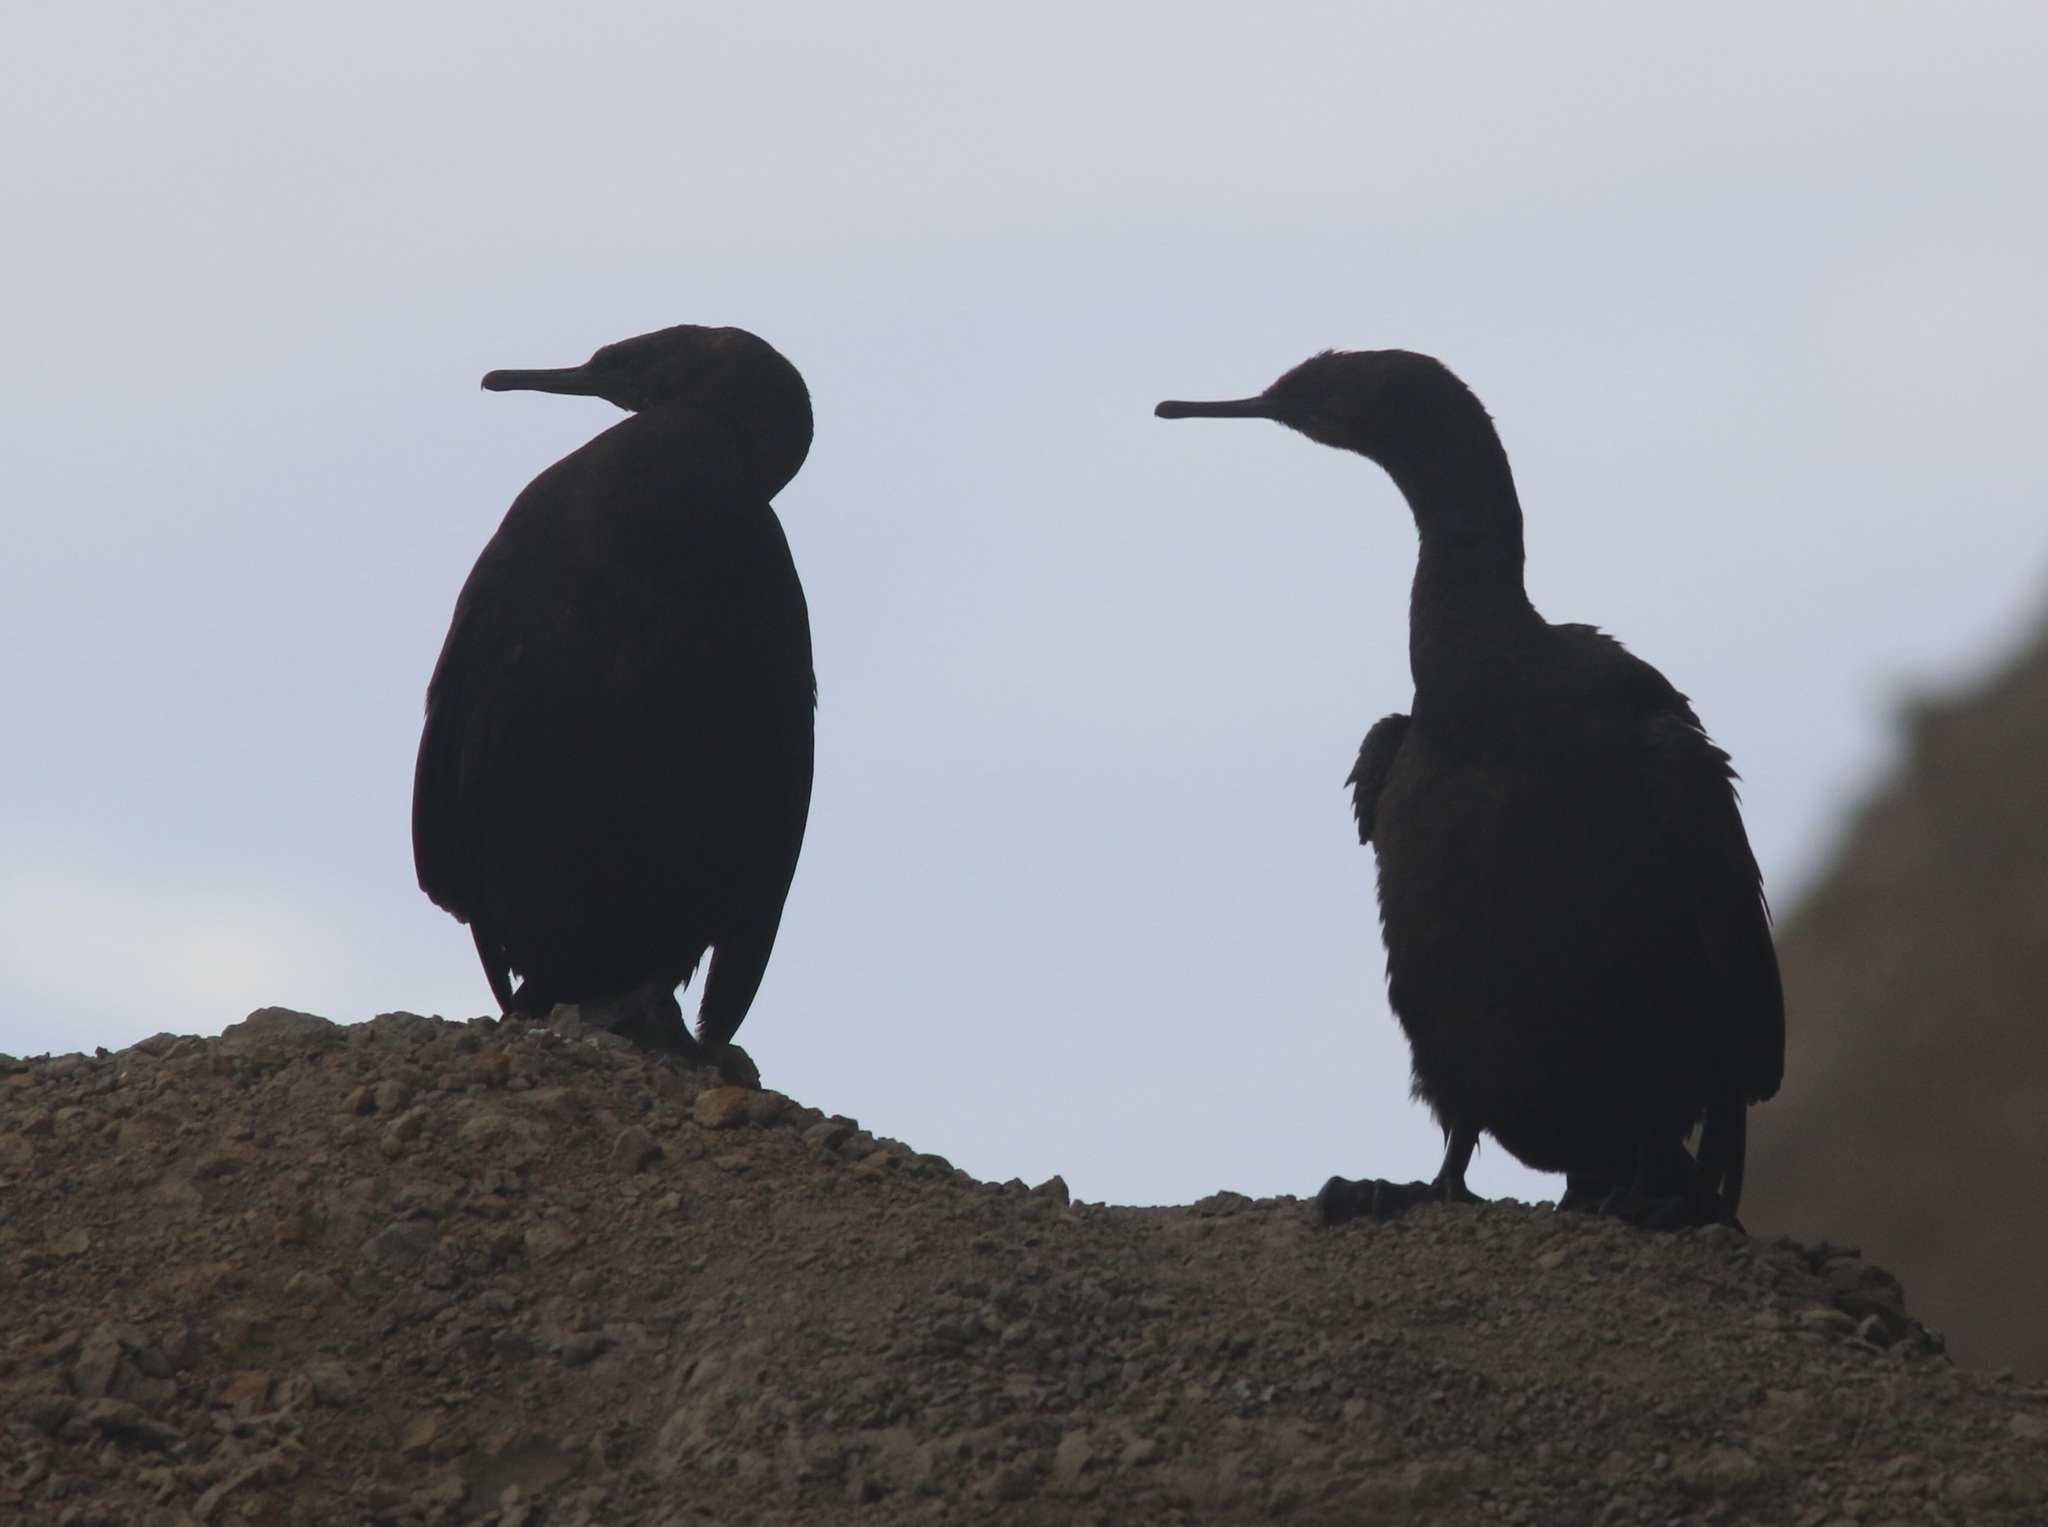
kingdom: Animalia
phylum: Chordata
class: Aves
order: Suliformes
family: Phalacrocoracidae
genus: Phalacrocorax
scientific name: Phalacrocorax pelagicus
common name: Pelagic cormorant
